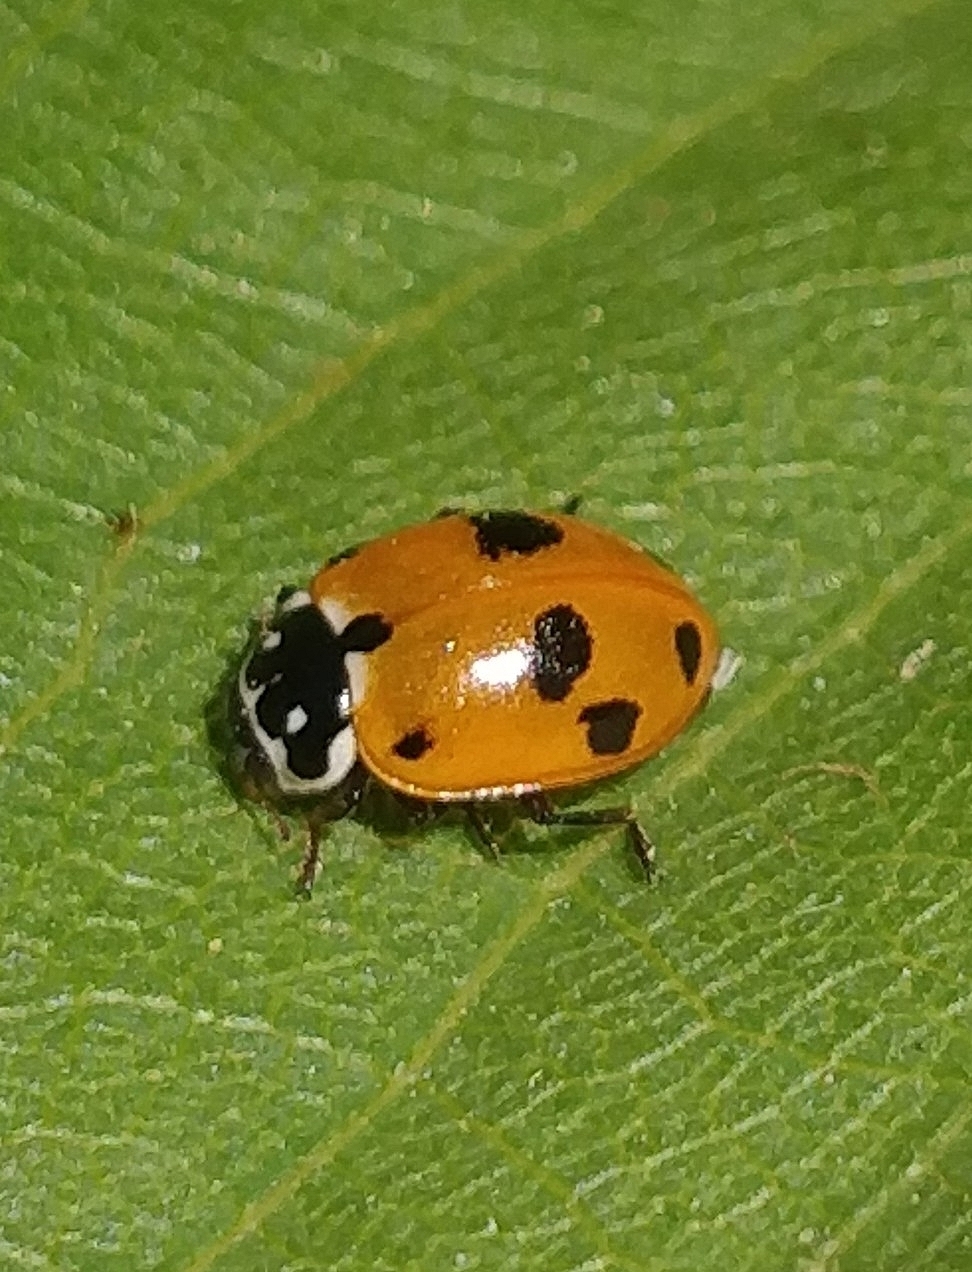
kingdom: Animalia
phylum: Arthropoda
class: Insecta
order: Coleoptera
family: Coccinellidae
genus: Hippodamia
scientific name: Hippodamia variegata
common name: Ladybird beetle
